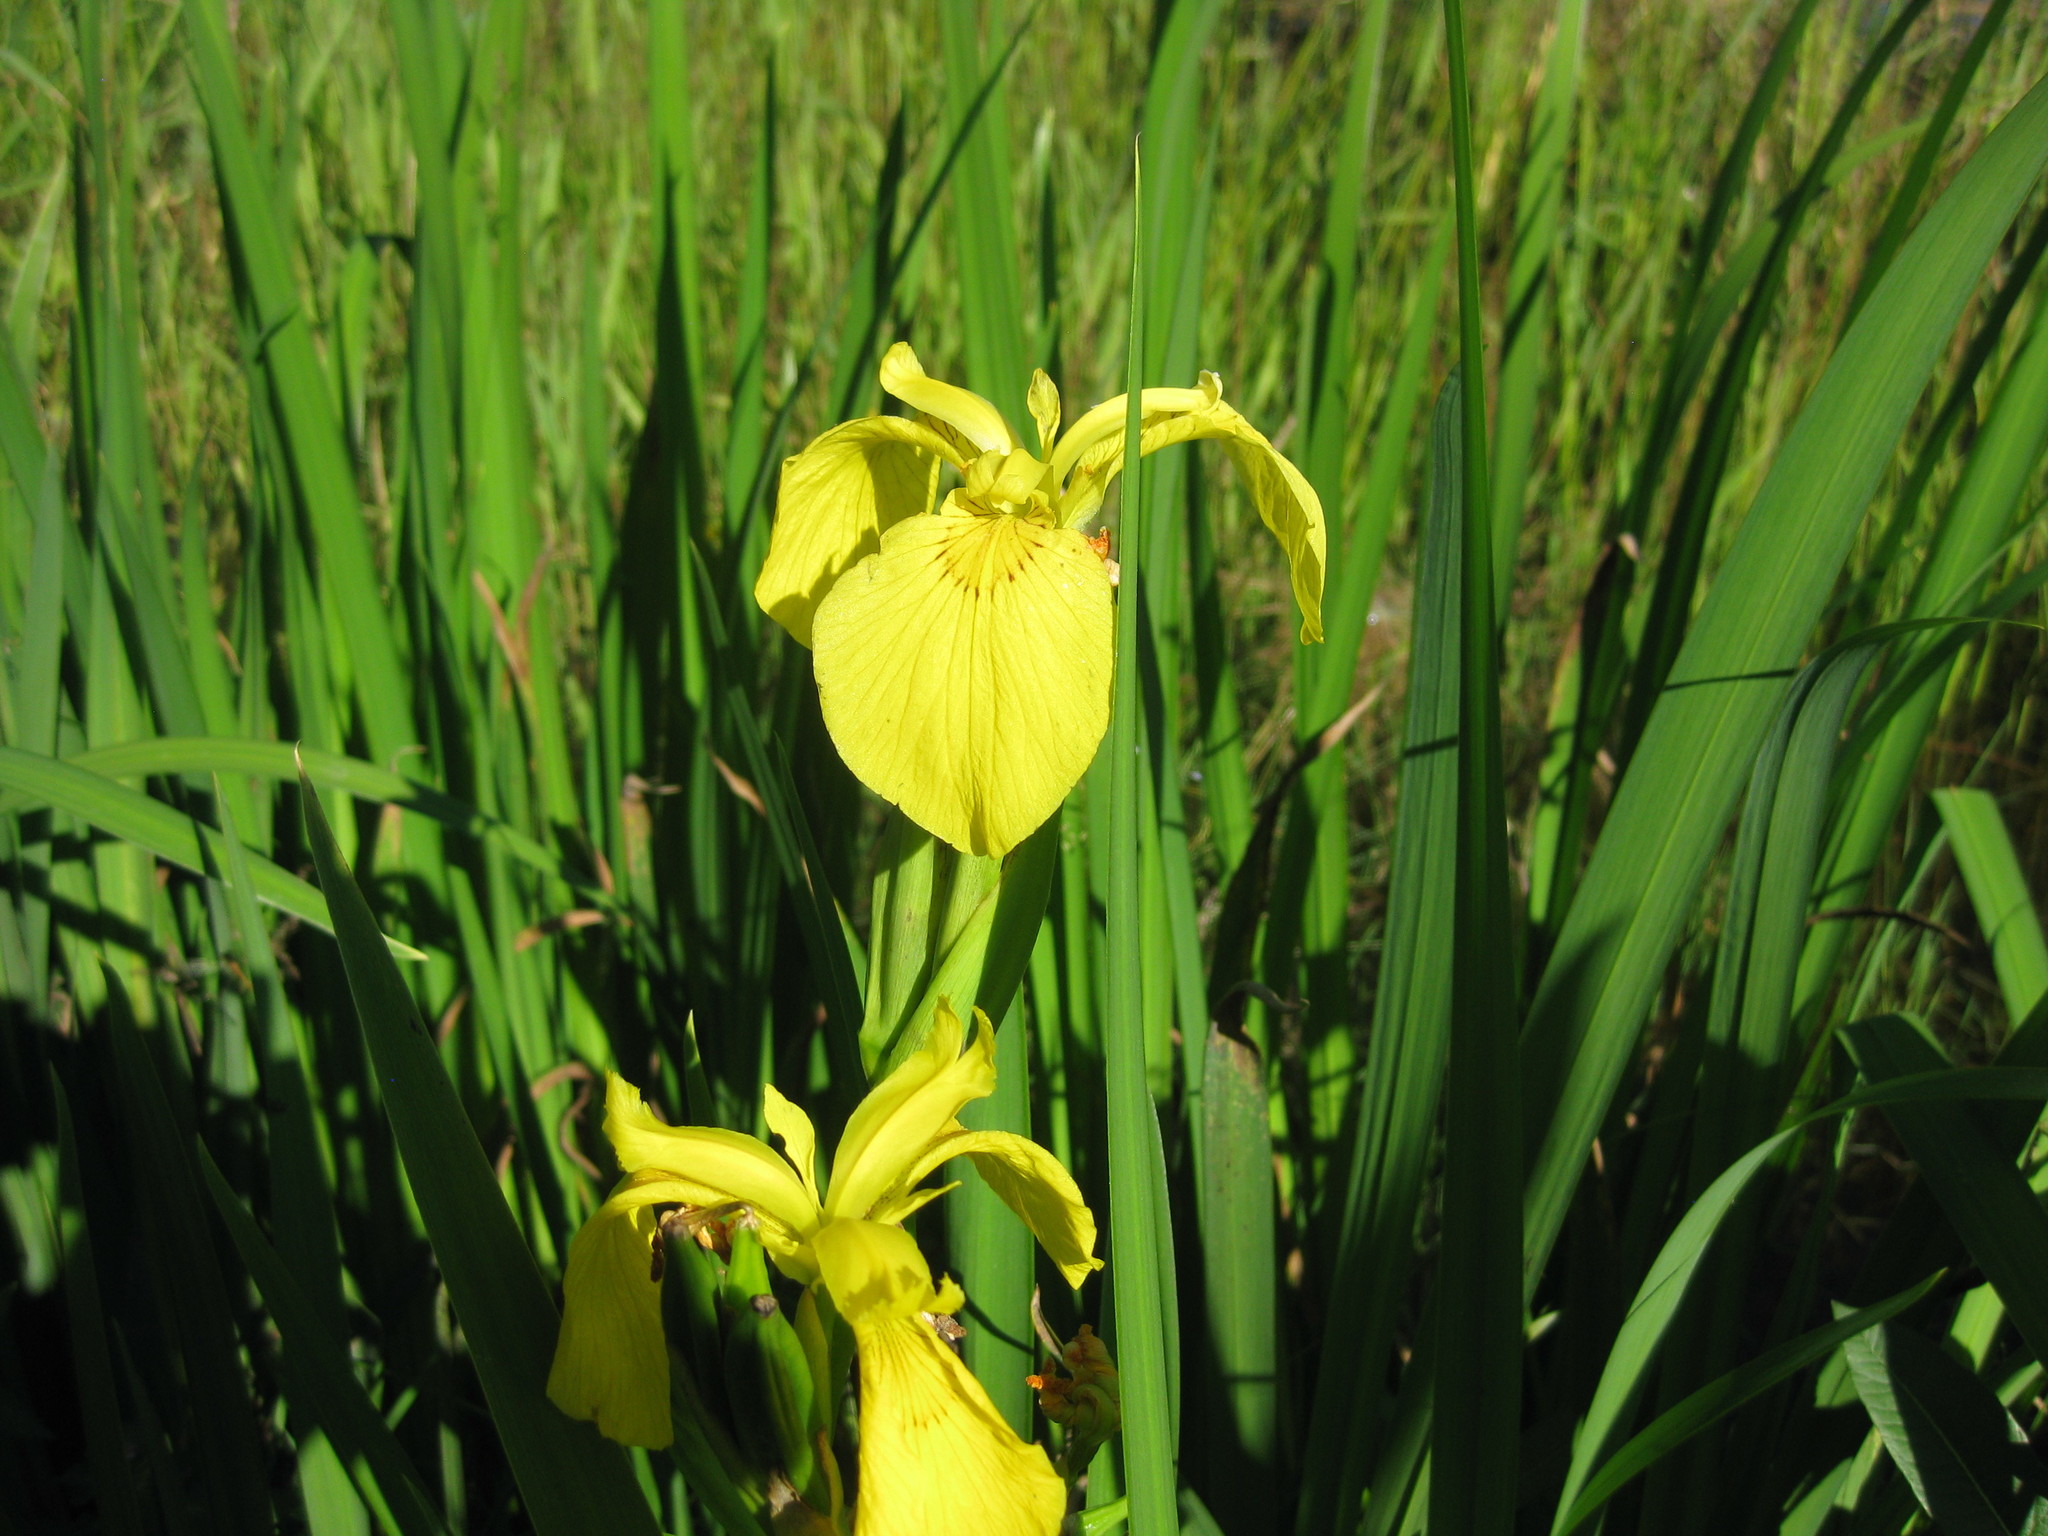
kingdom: Plantae
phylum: Tracheophyta
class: Liliopsida
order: Asparagales
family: Iridaceae
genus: Iris
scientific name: Iris pseudacorus
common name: Yellow flag
